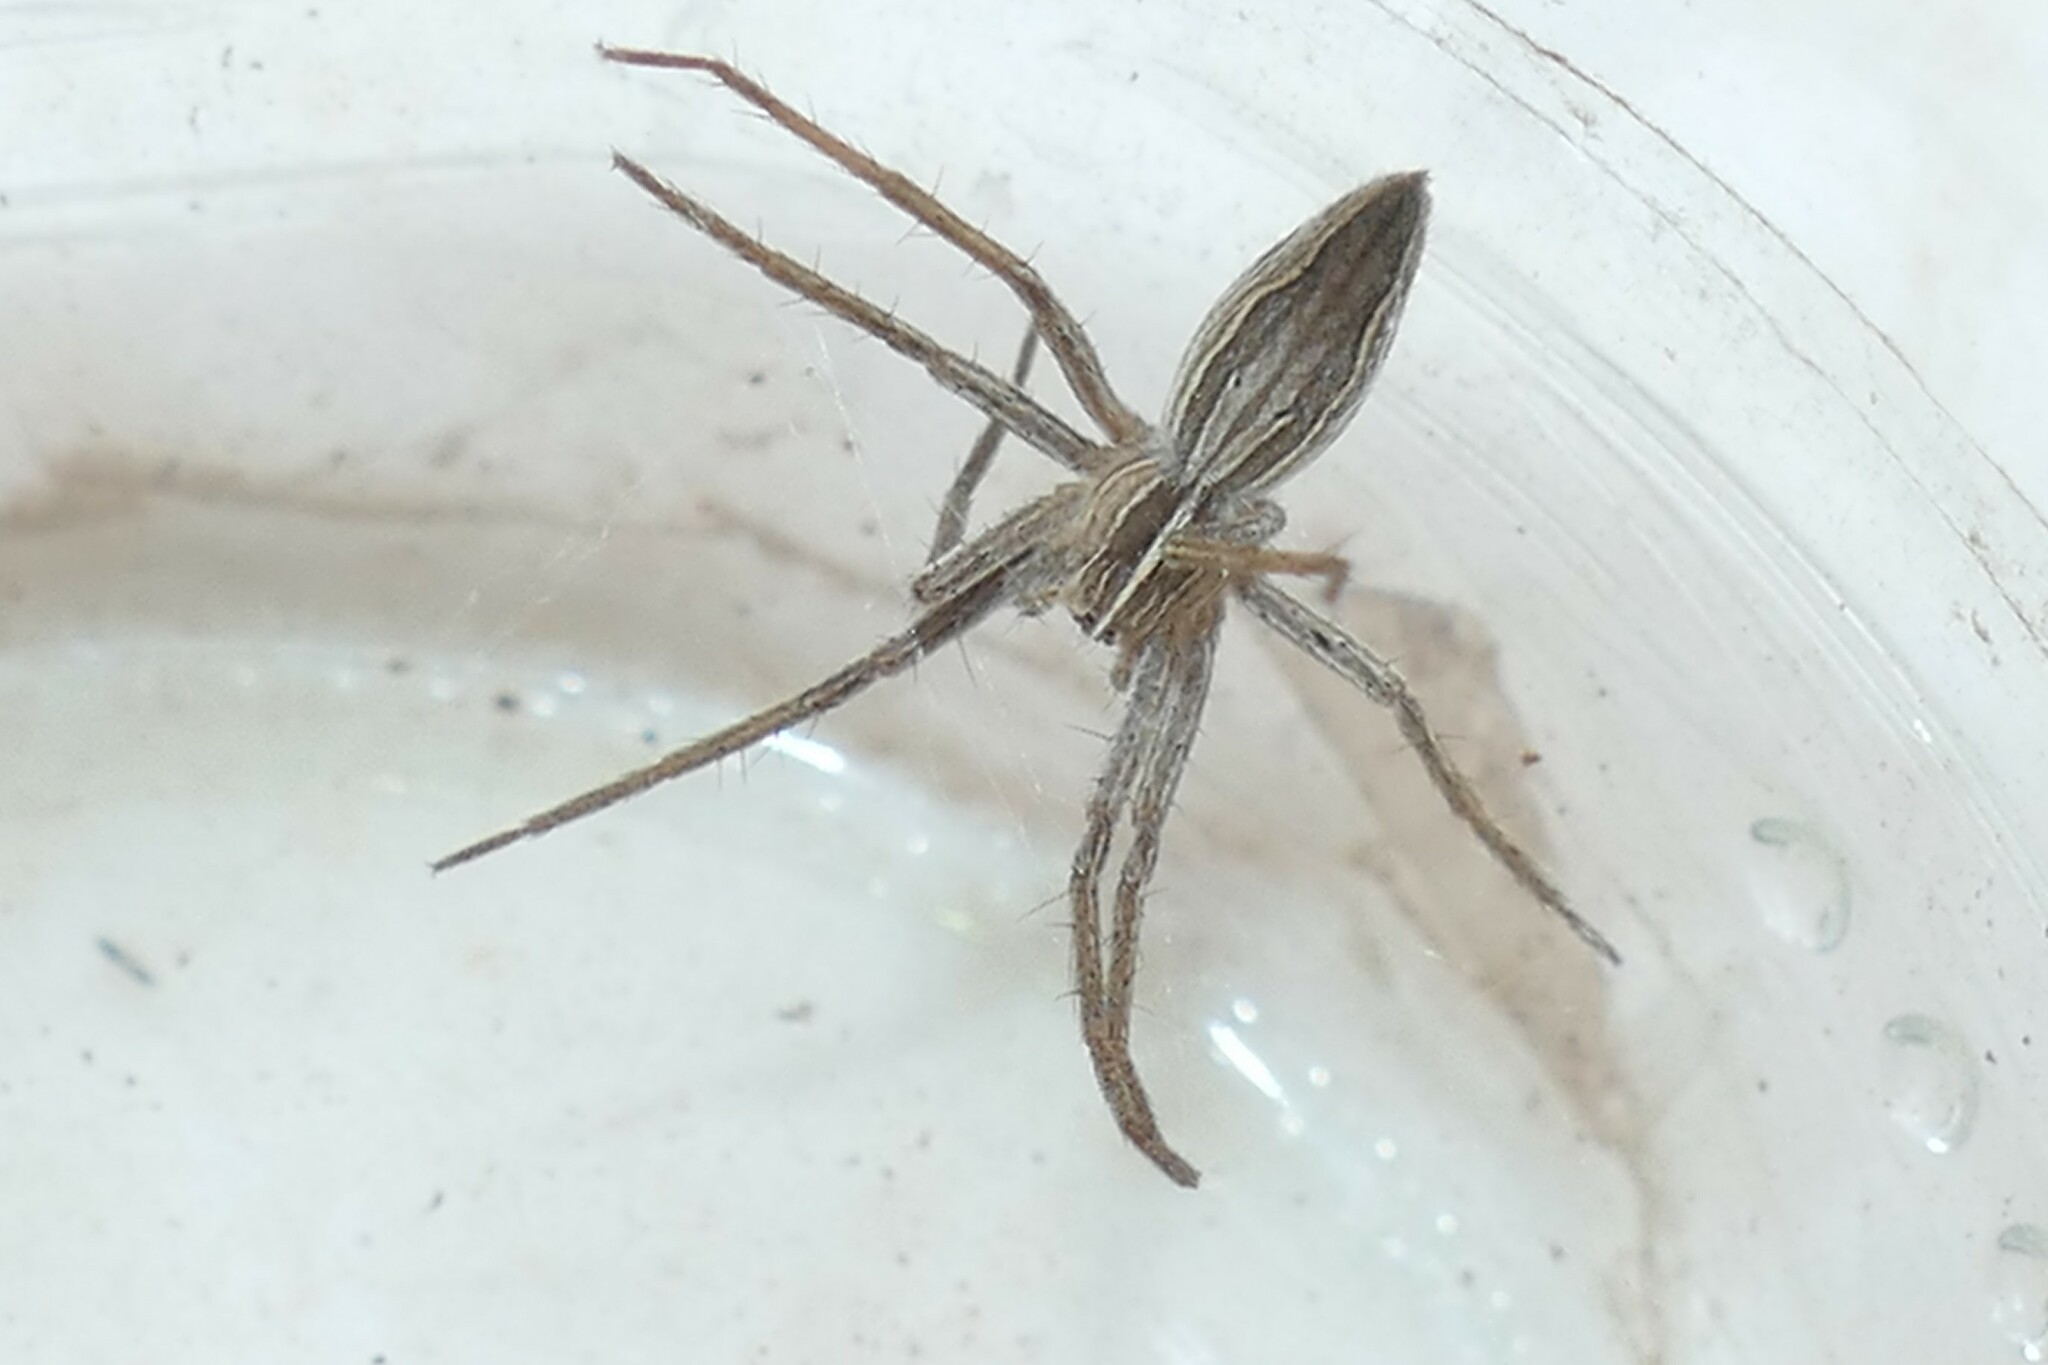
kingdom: Animalia
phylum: Arthropoda
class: Arachnida
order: Araneae
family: Pisauridae
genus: Pisaura
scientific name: Pisaura
